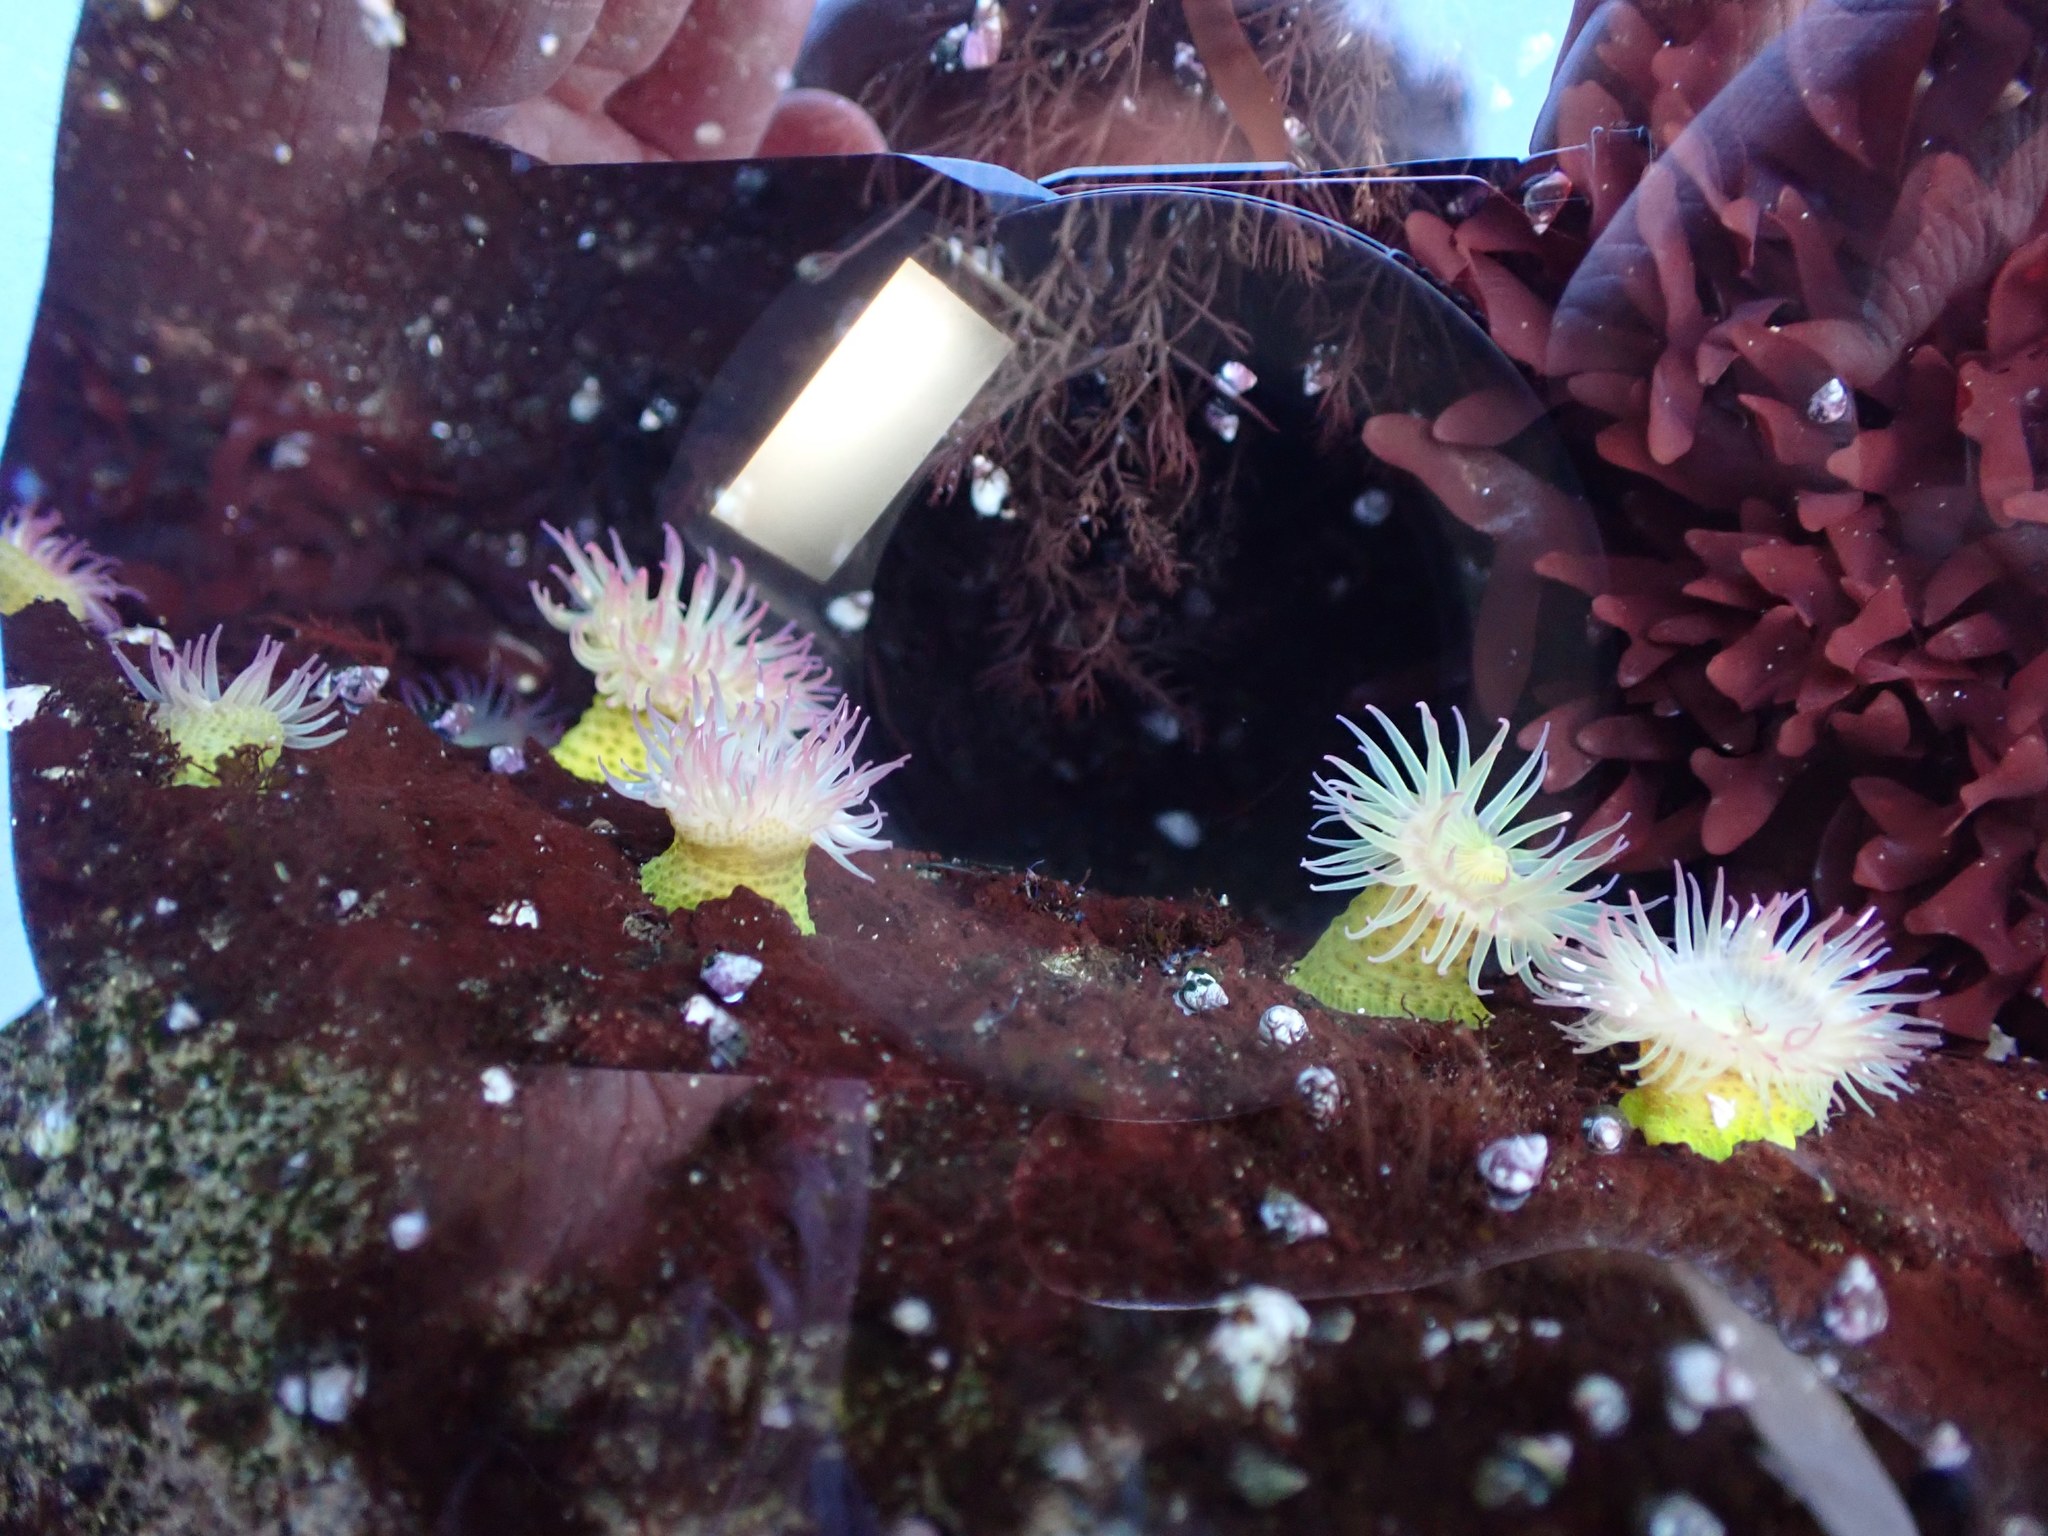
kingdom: Animalia
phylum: Cnidaria
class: Anthozoa
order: Actiniaria
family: Actiniidae
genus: Anthopleura
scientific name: Anthopleura elegantissima
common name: Clonal anemone
